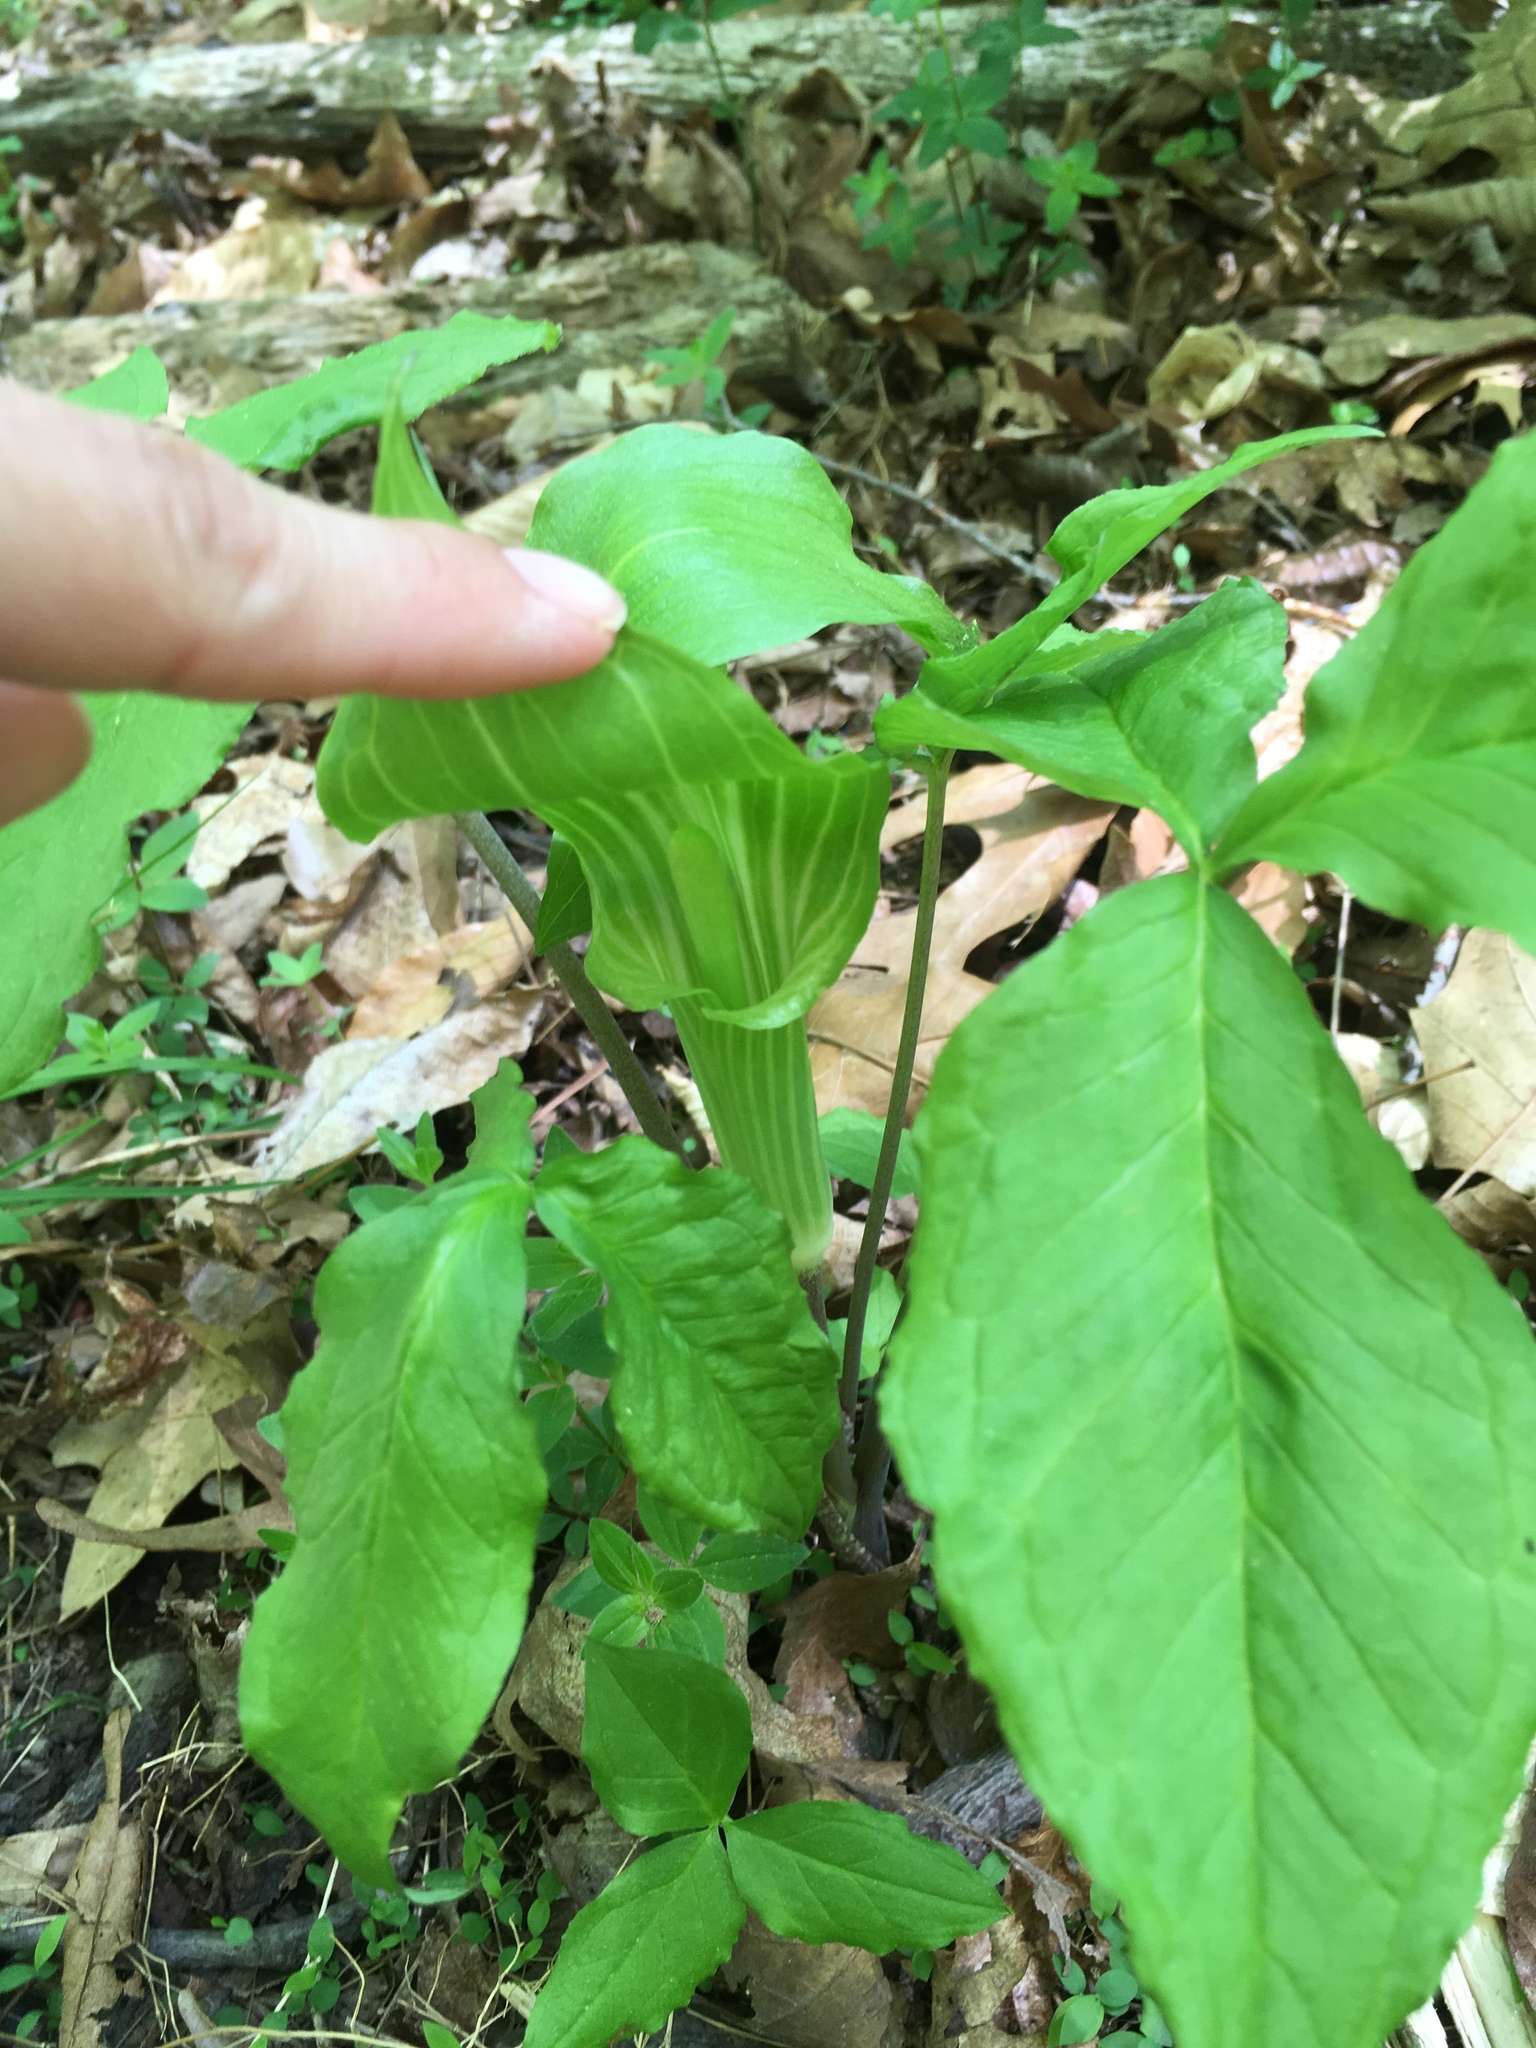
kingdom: Plantae
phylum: Tracheophyta
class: Liliopsida
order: Alismatales
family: Araceae
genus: Arisaema
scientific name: Arisaema triphyllum
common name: Jack-in-the-pulpit
